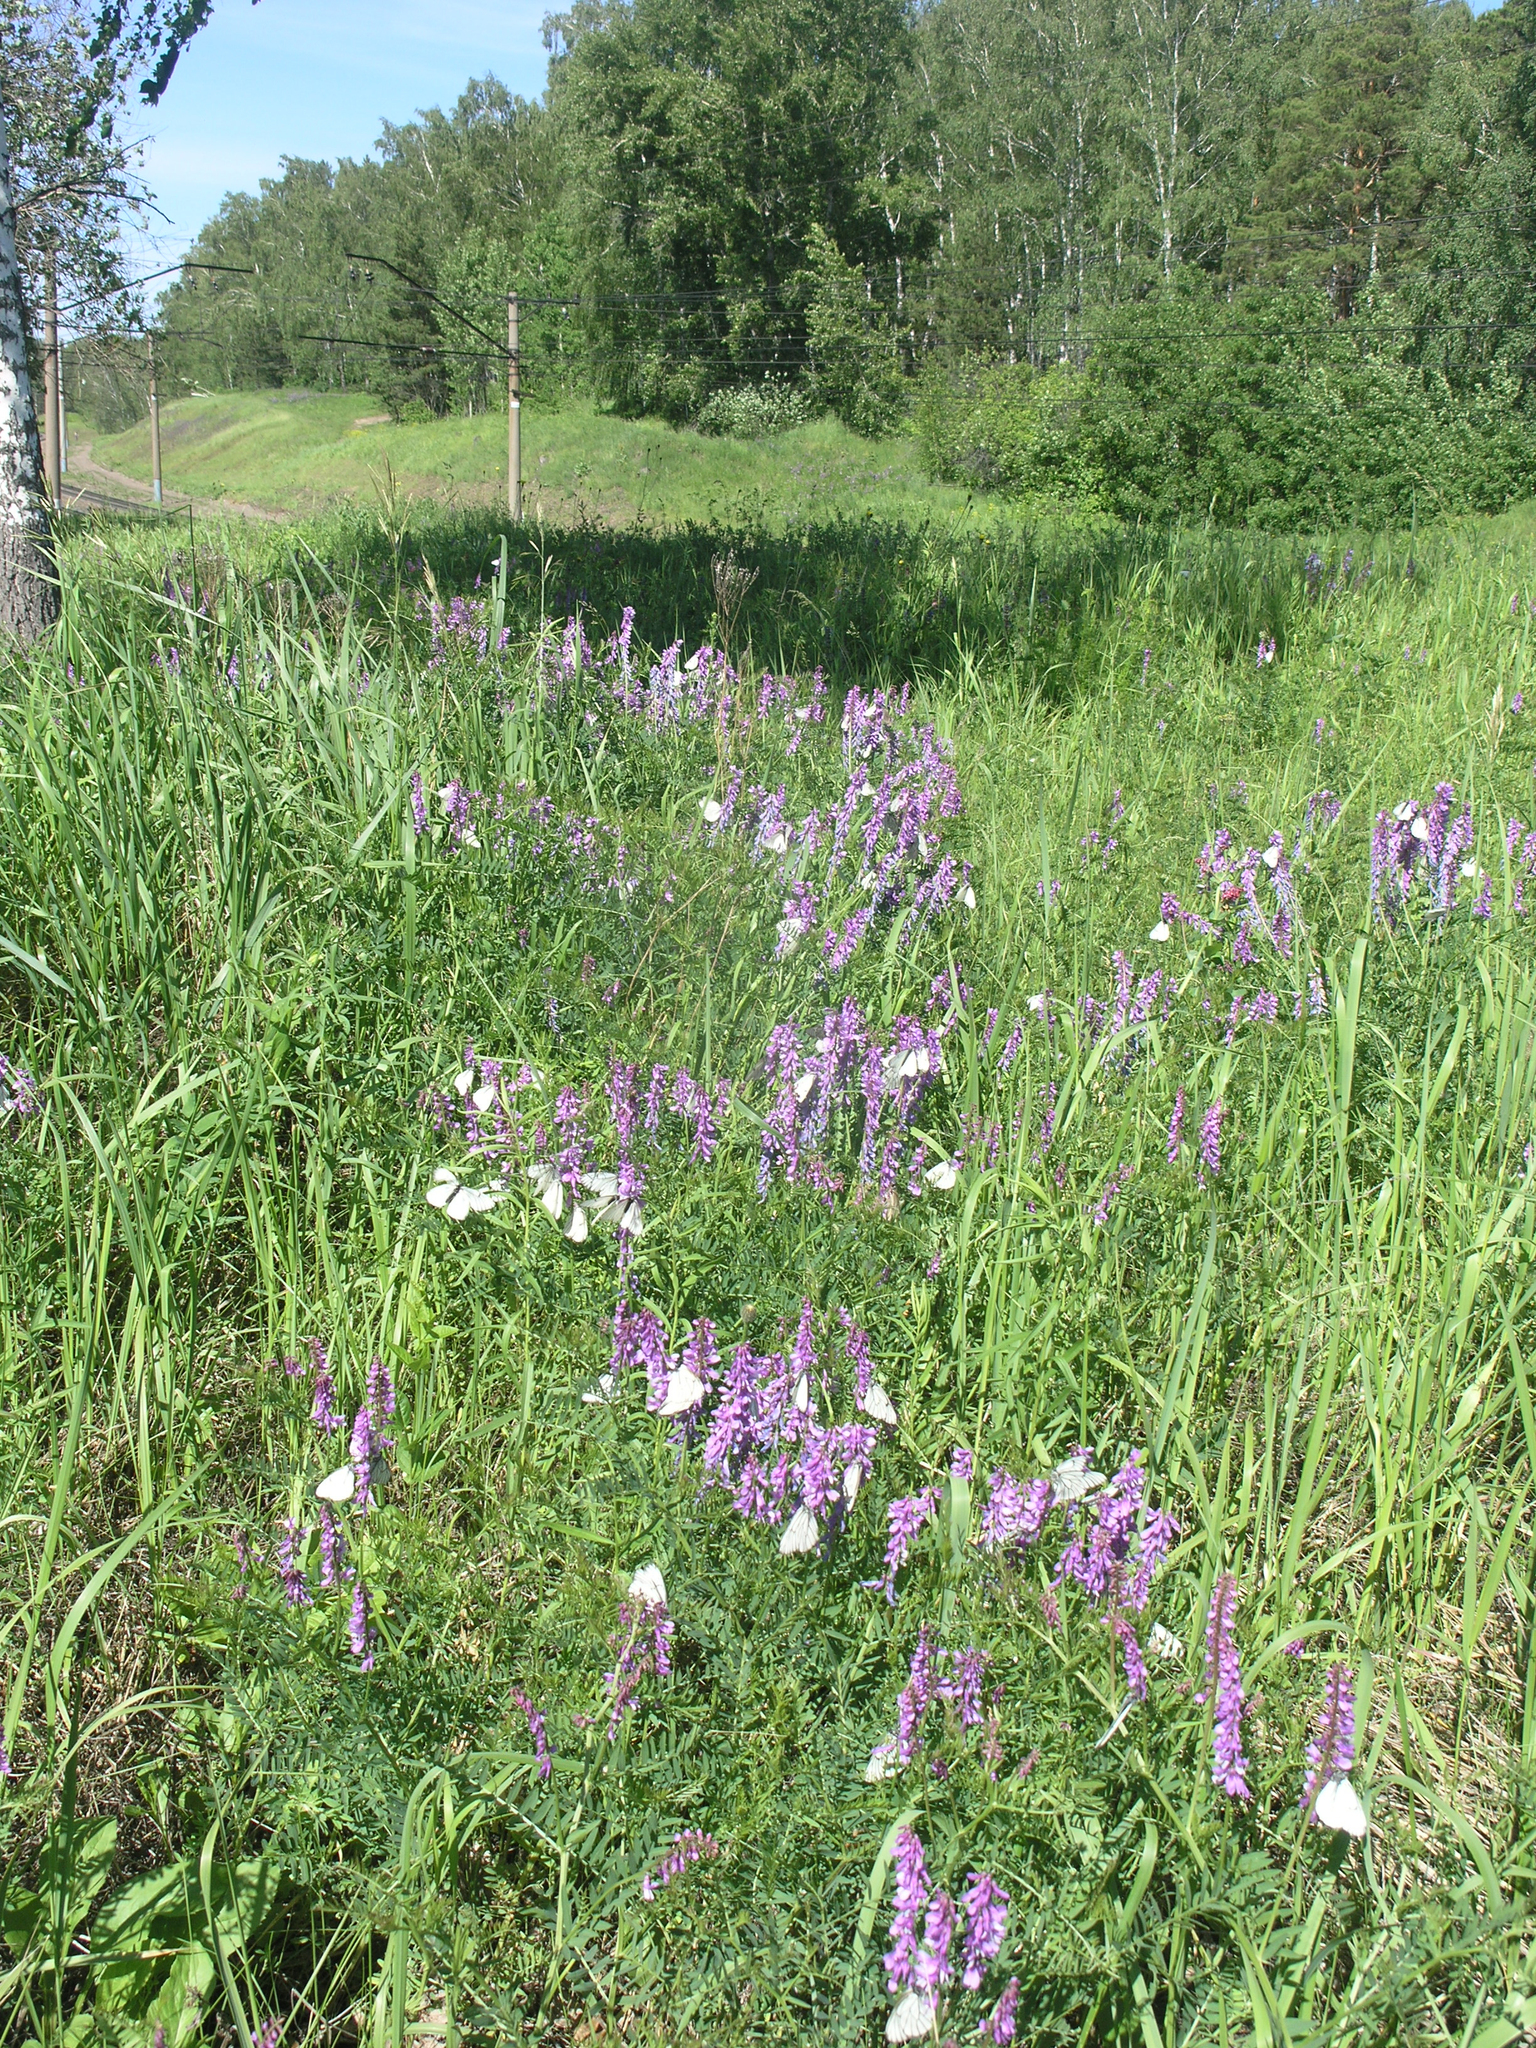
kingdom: Plantae
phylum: Tracheophyta
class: Magnoliopsida
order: Fabales
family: Fabaceae
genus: Vicia
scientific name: Vicia tenuifolia
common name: Fine-leaved vetch
